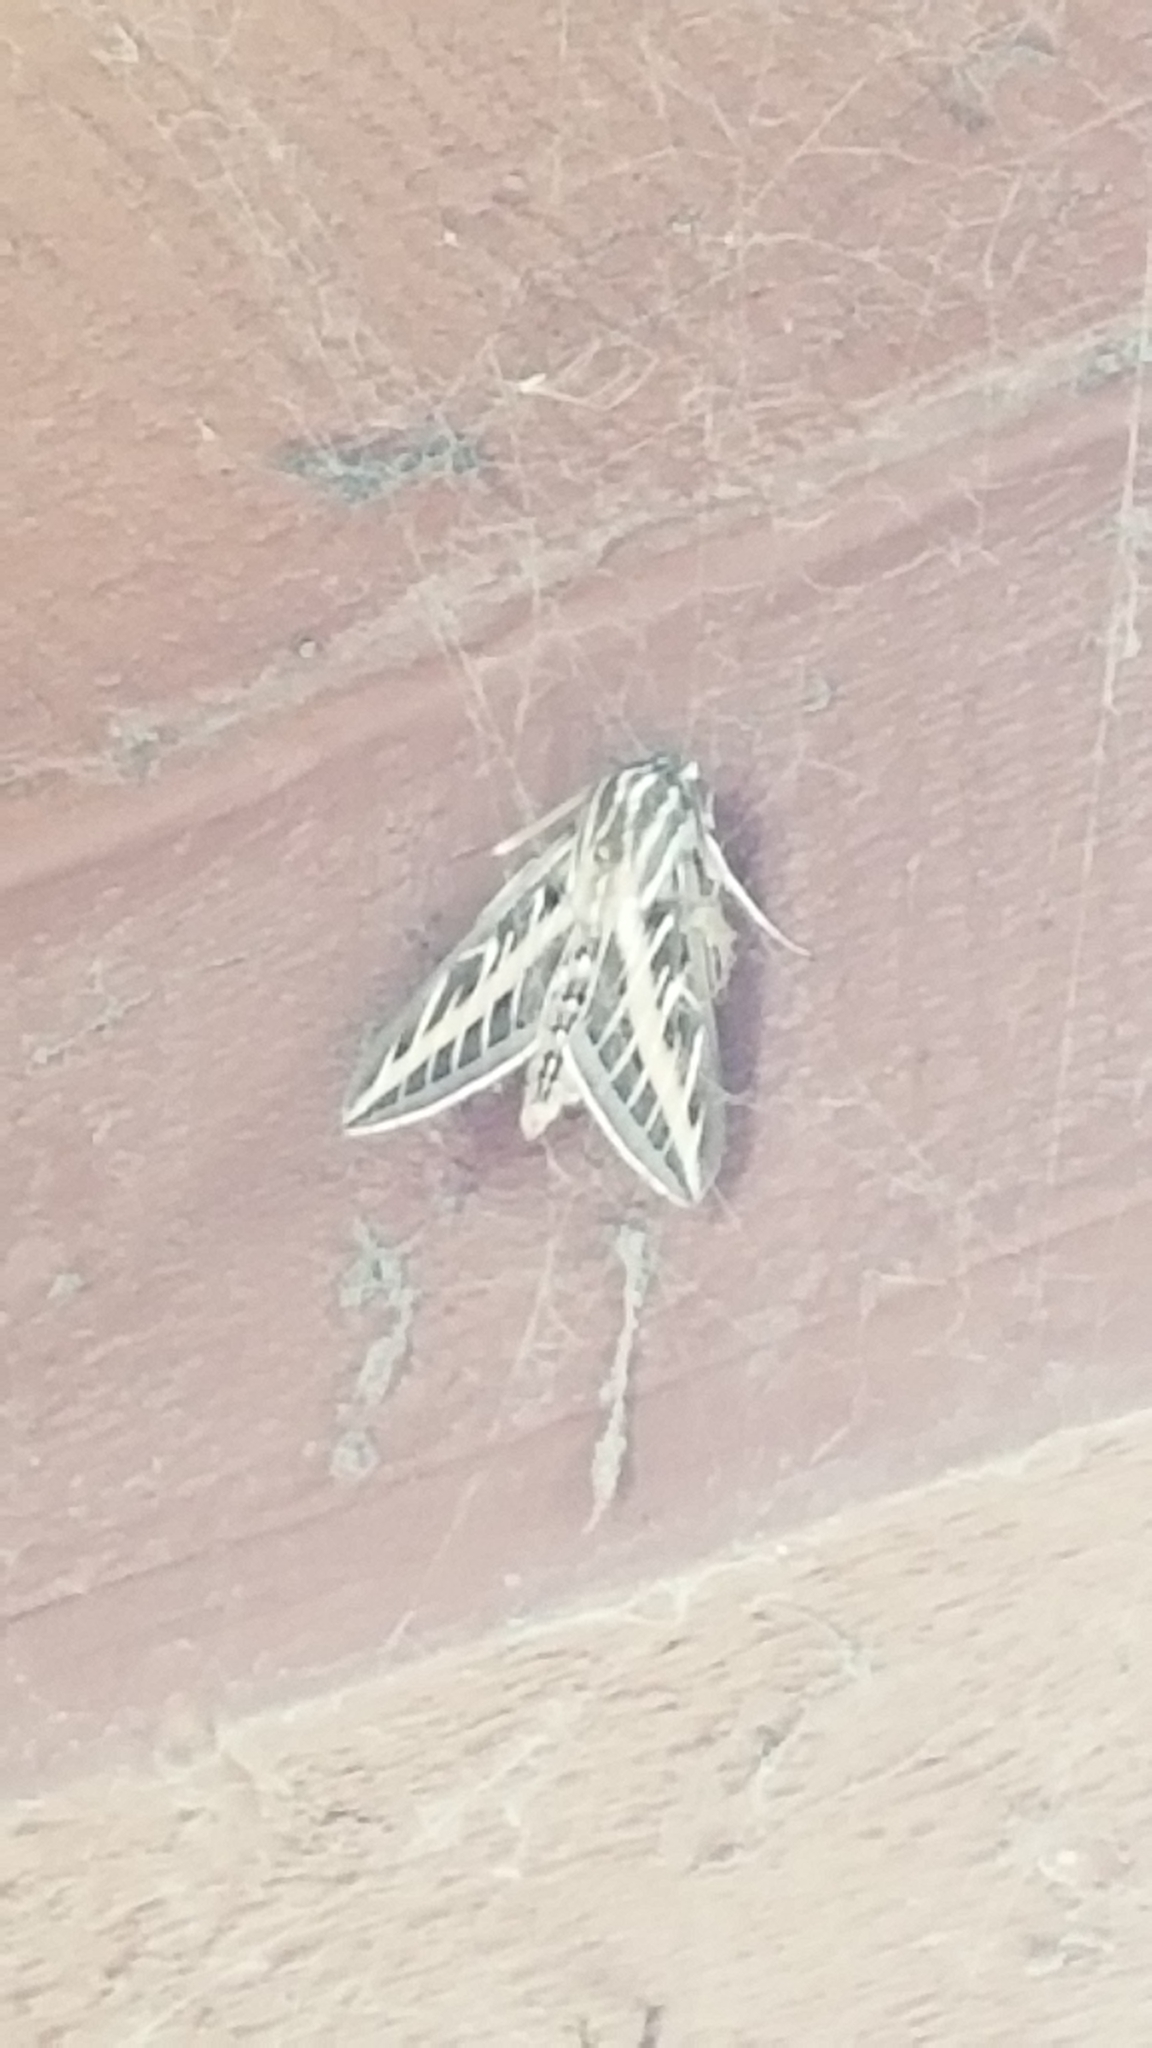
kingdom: Animalia
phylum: Arthropoda
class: Insecta
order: Lepidoptera
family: Sphingidae
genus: Hyles
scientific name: Hyles lineata
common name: White-lined sphinx
